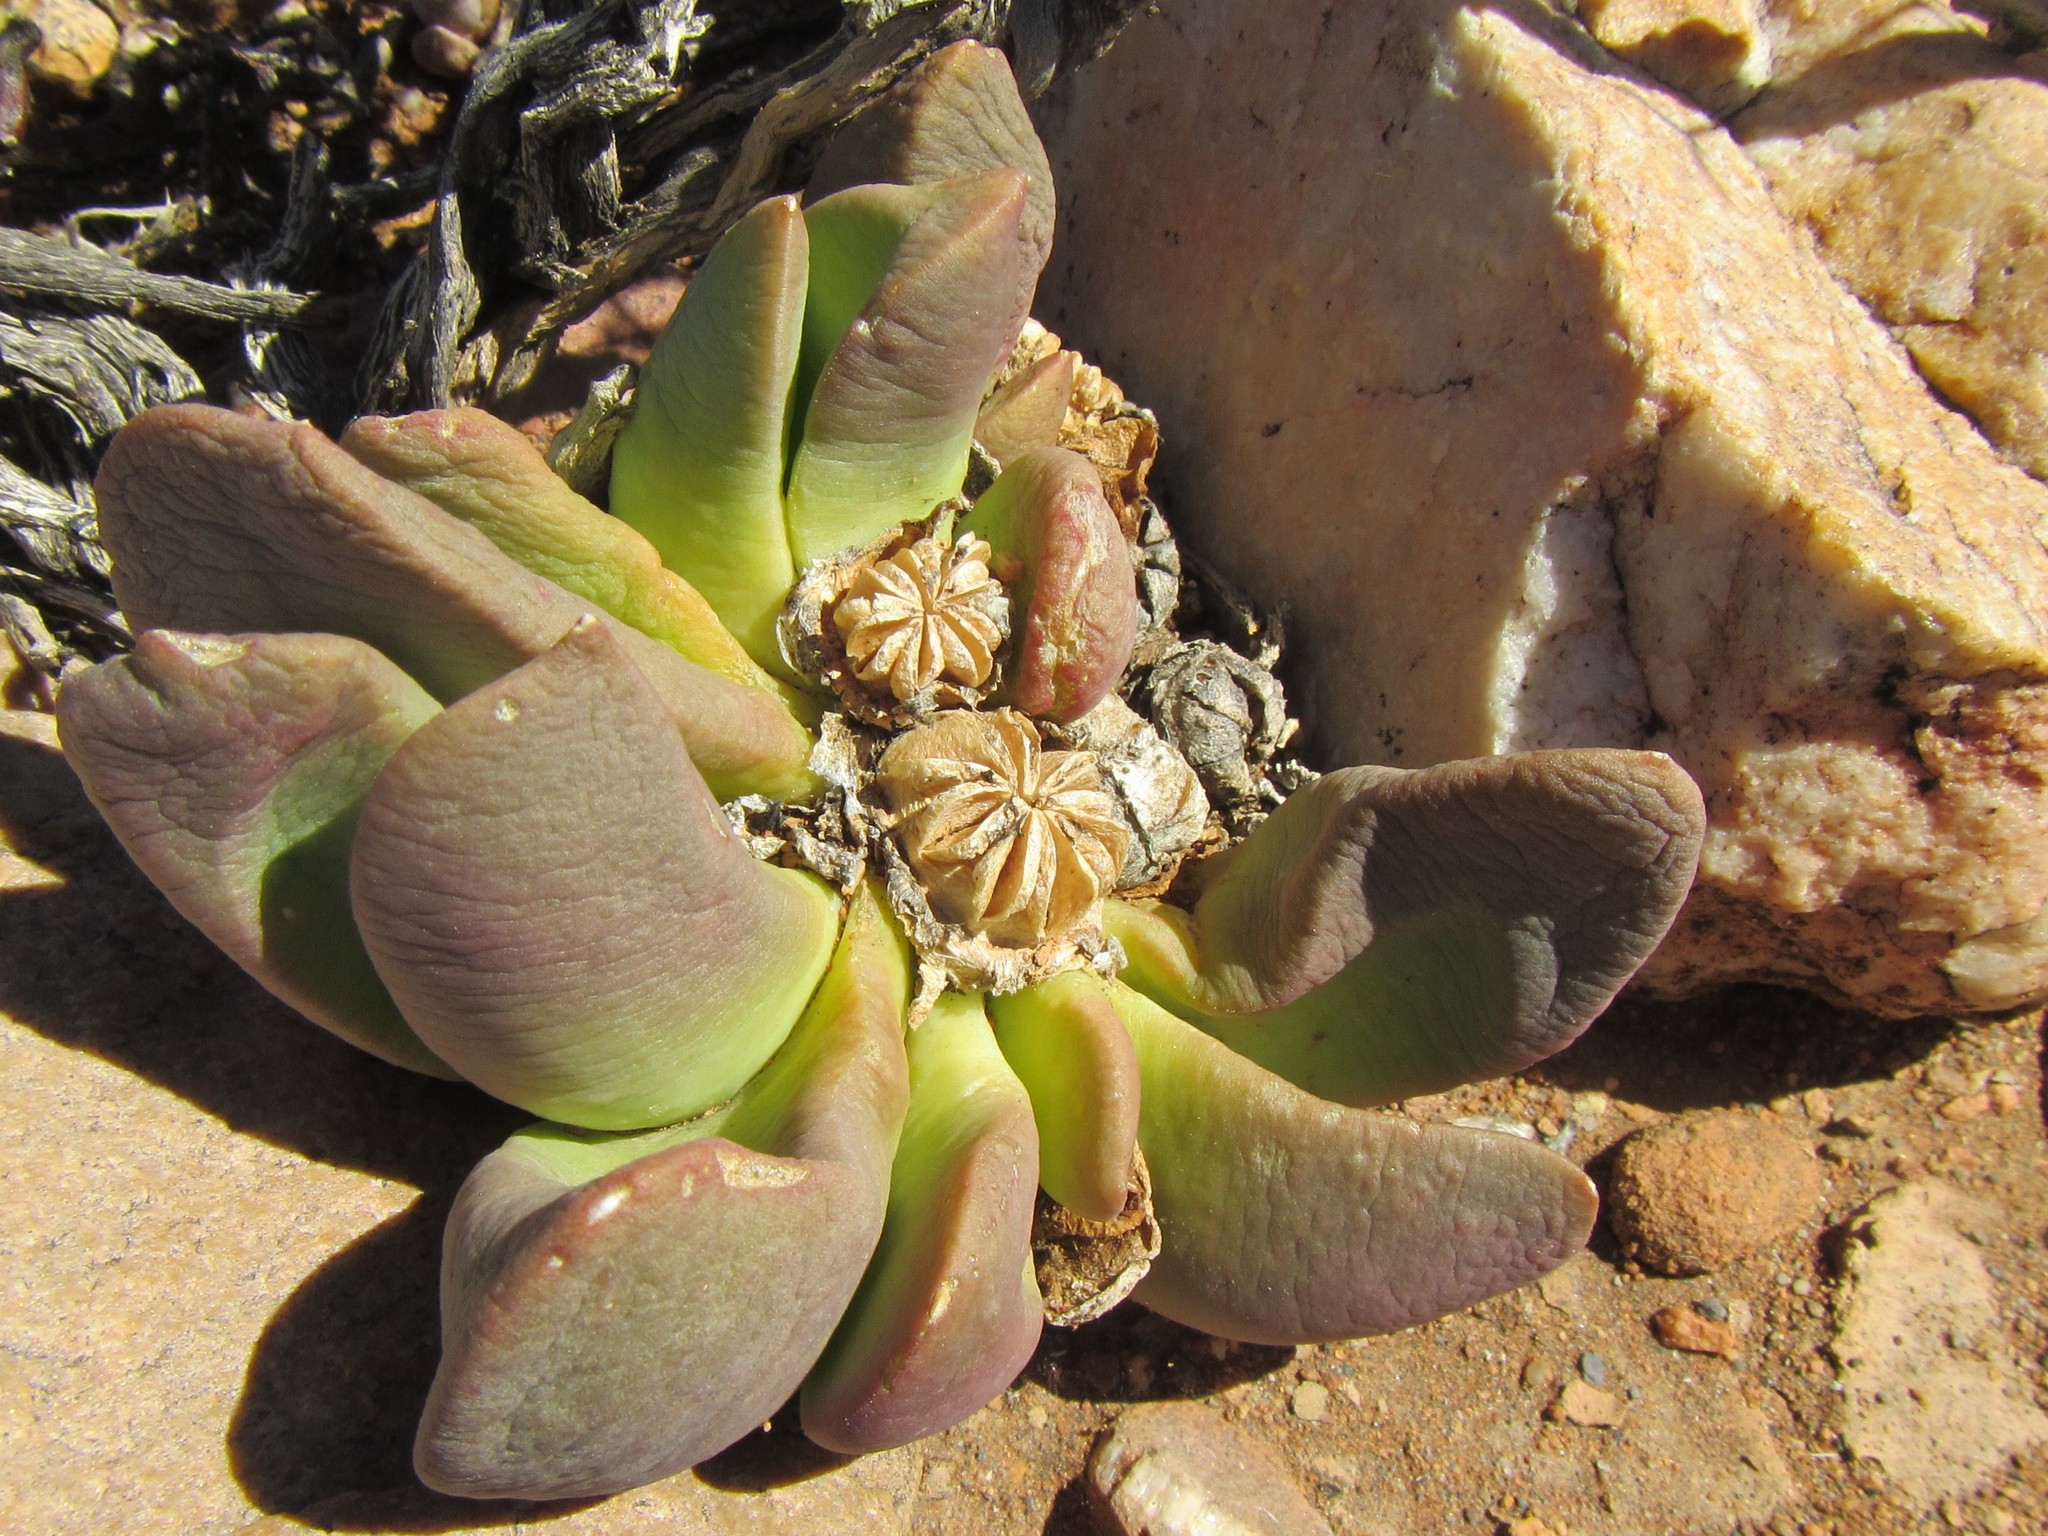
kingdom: Plantae
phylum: Tracheophyta
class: Magnoliopsida
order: Caryophyllales
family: Aizoaceae
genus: Glottiphyllum
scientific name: Glottiphyllum depressum
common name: Fig-marigold
